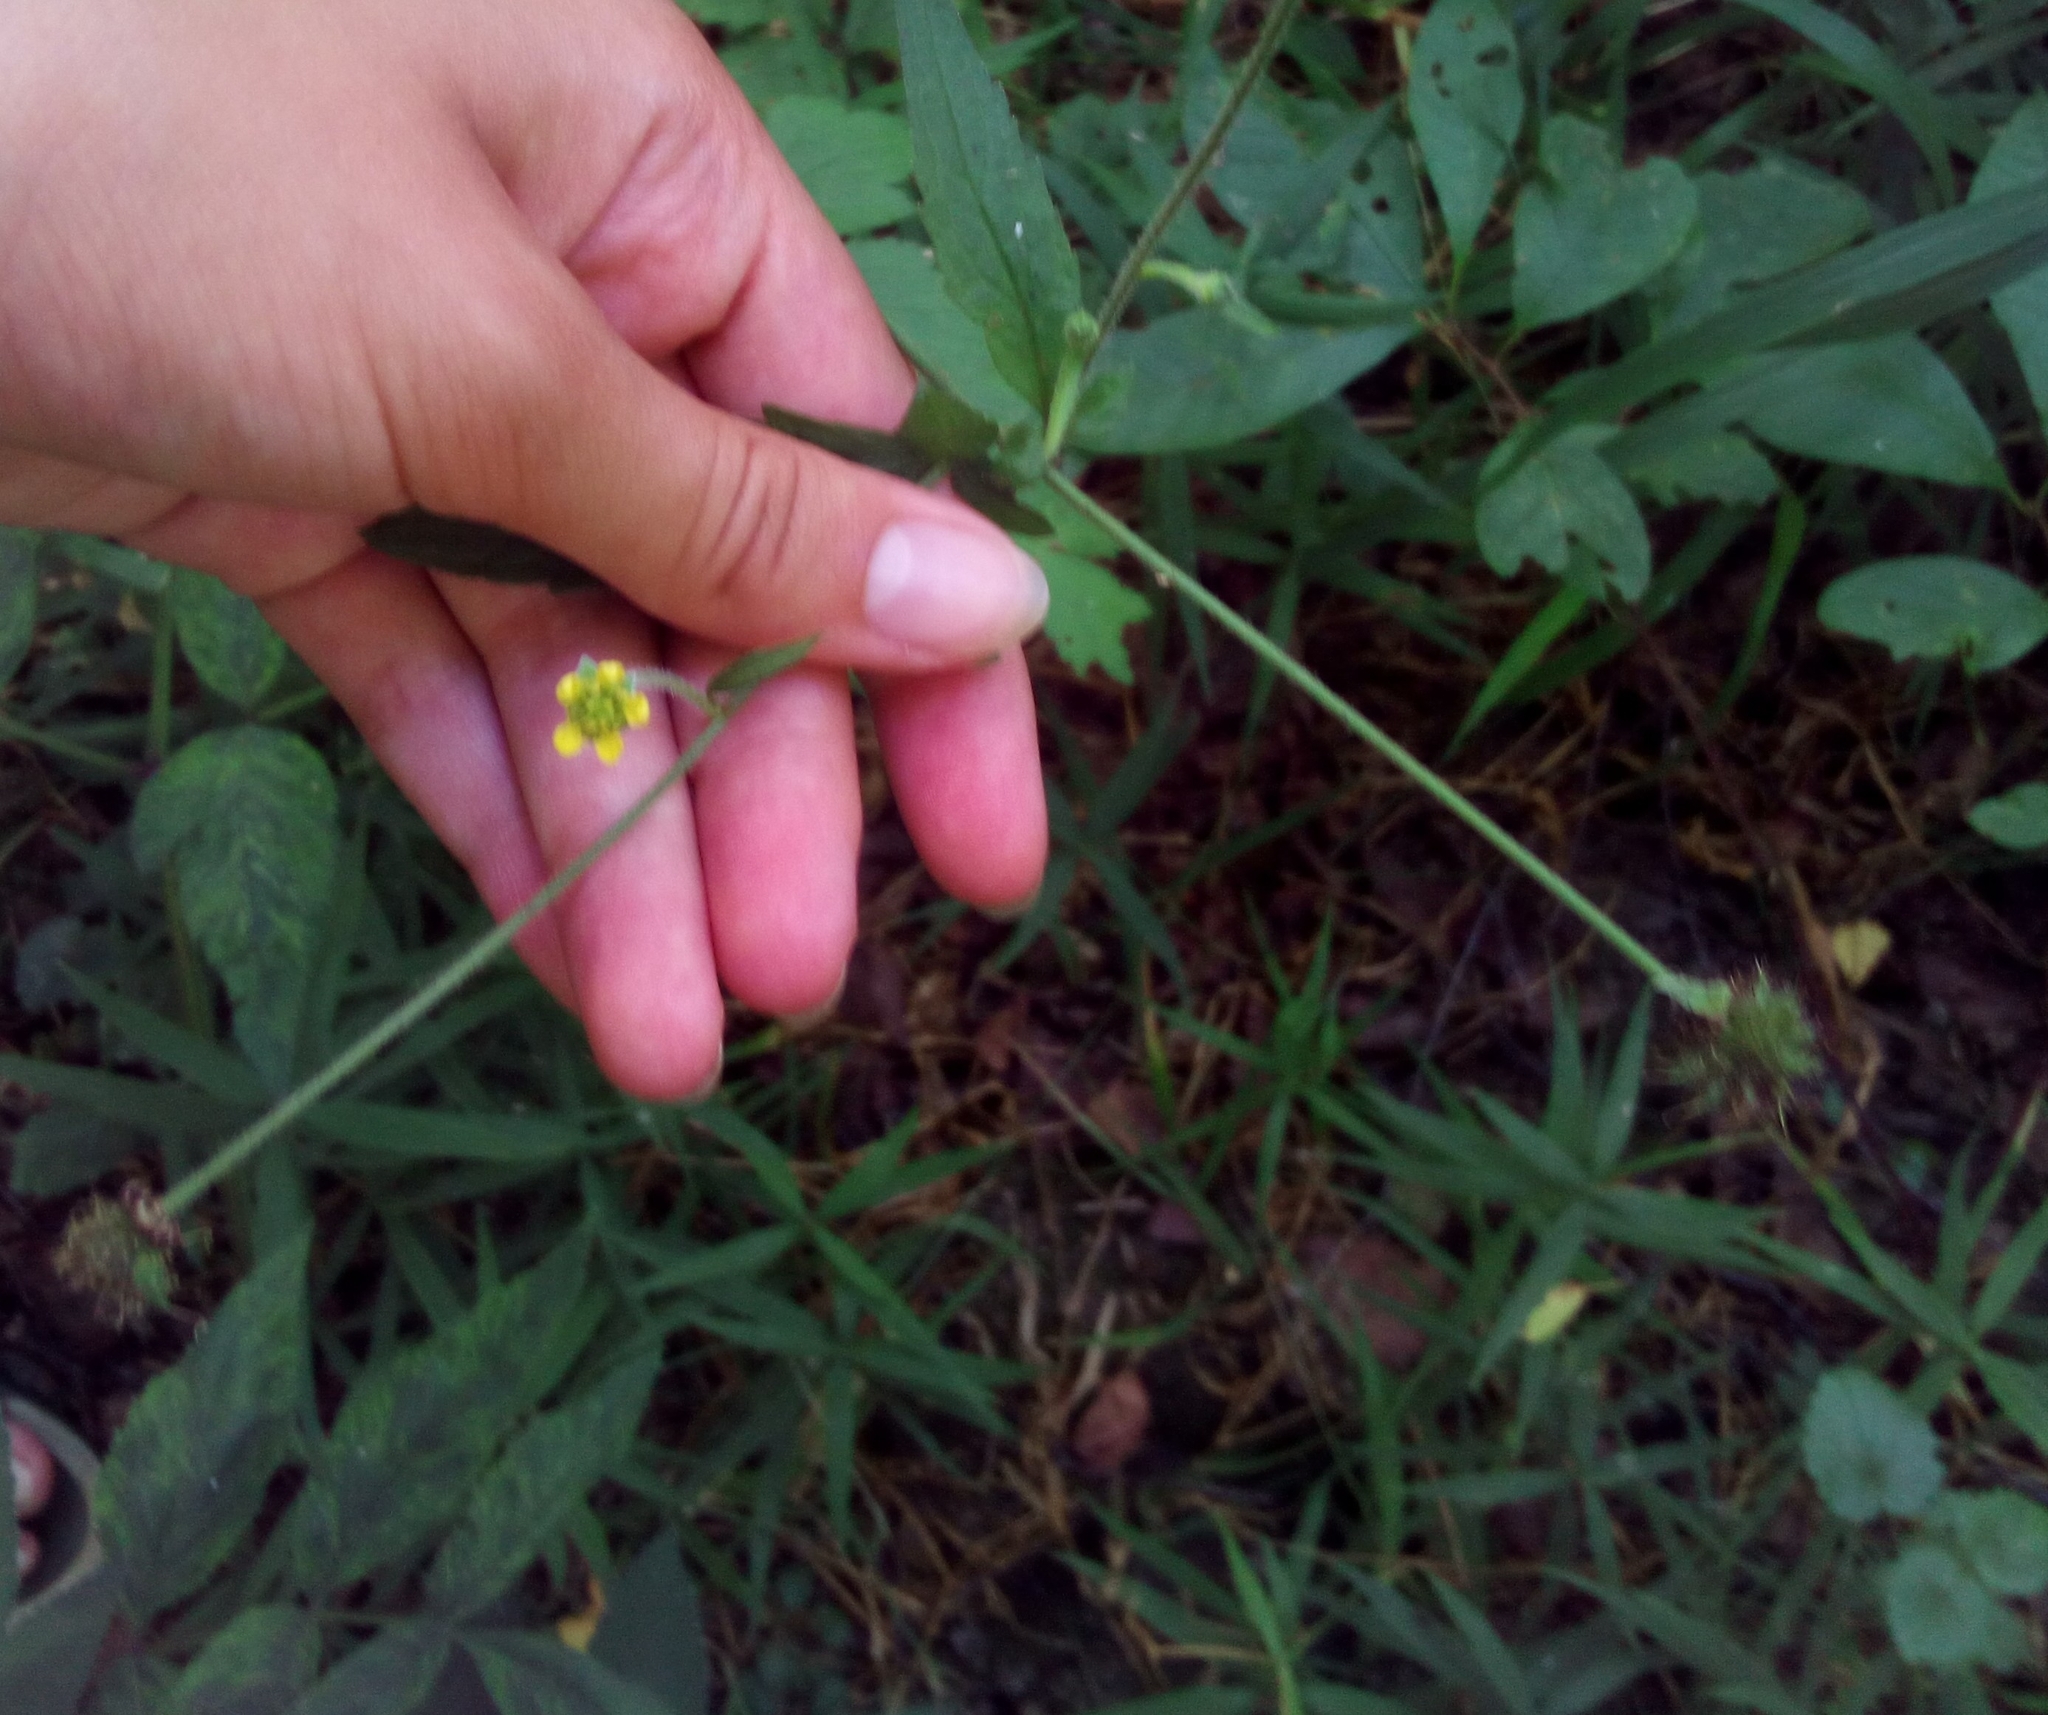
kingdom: Plantae
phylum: Tracheophyta
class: Magnoliopsida
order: Rosales
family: Rosaceae
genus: Geum
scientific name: Geum urbanum
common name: Wood avens
